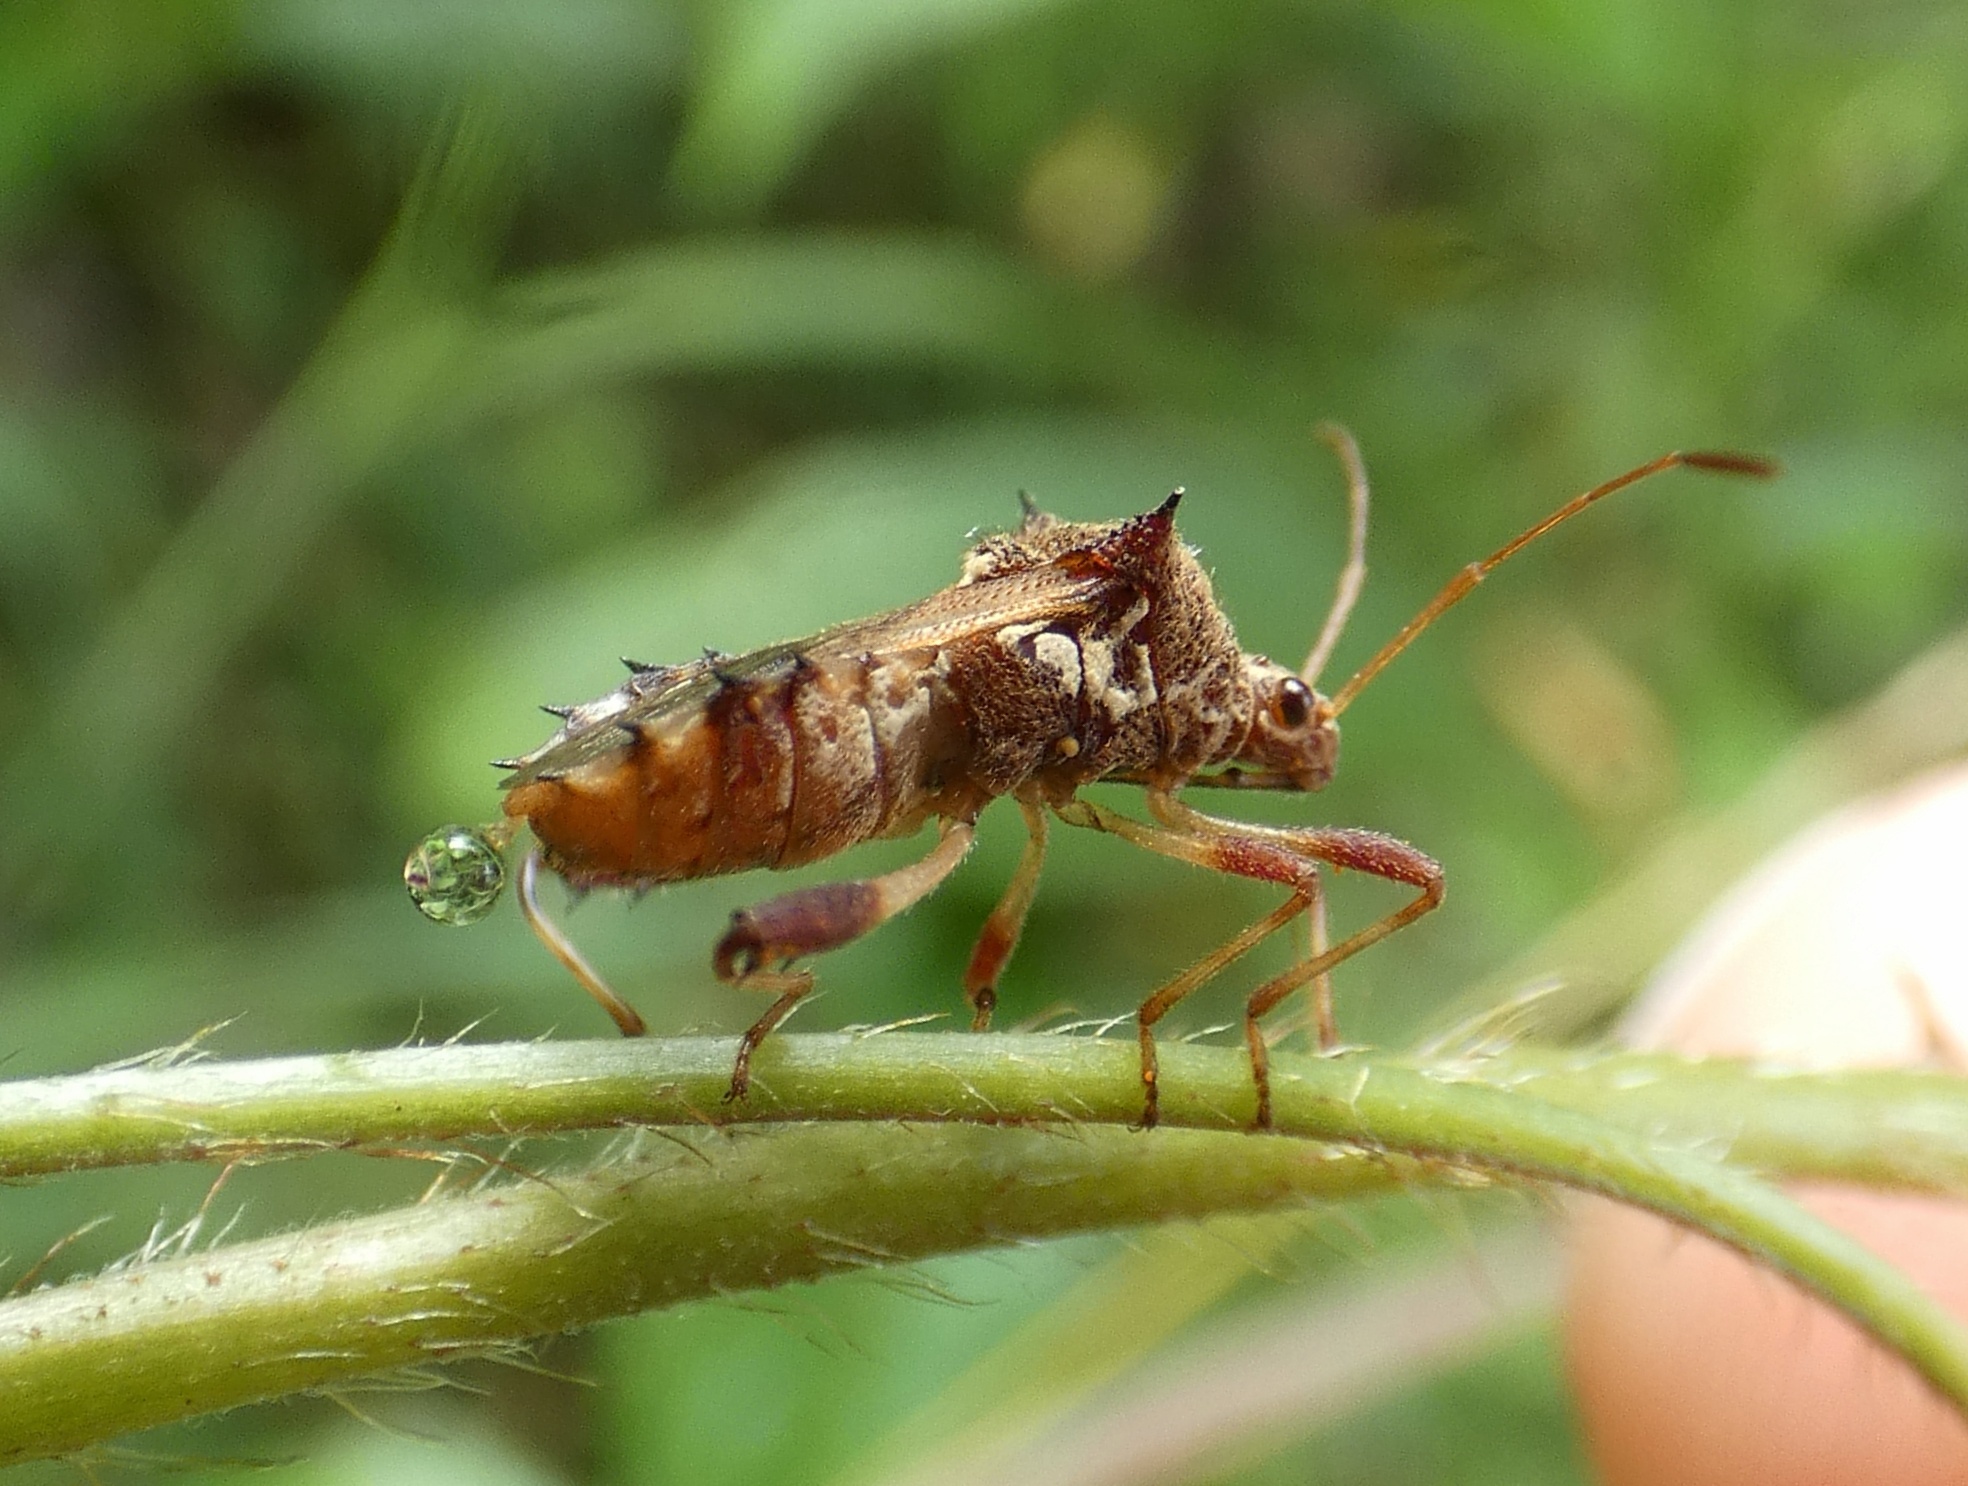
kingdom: Animalia
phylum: Arthropoda
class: Insecta
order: Hemiptera
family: Coreidae
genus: Gralliclava
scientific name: Gralliclava australiensis
